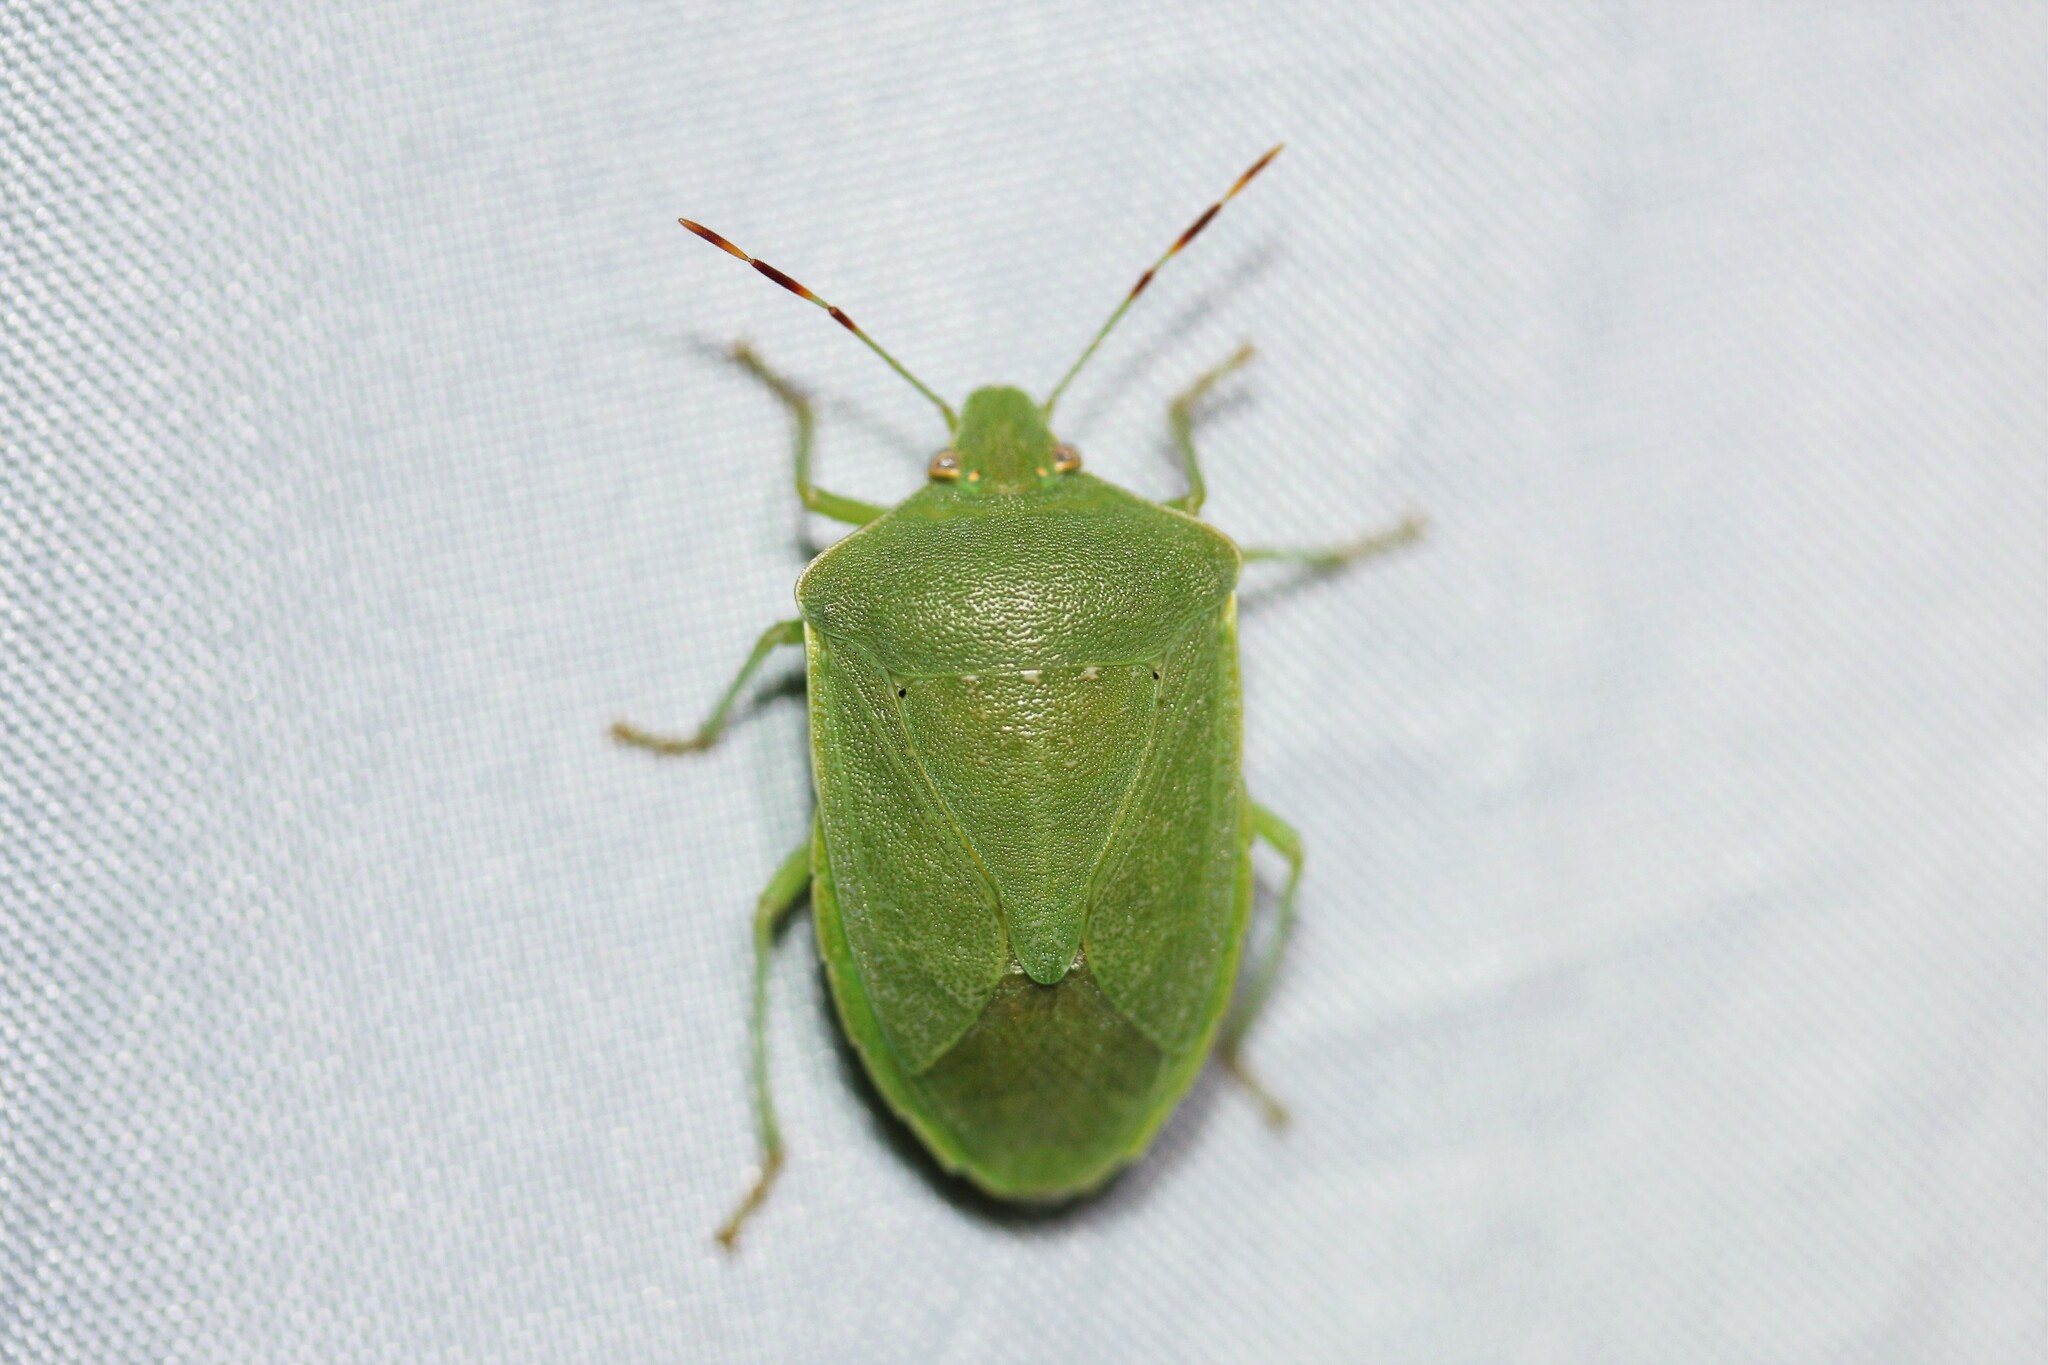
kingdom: Animalia
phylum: Arthropoda
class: Insecta
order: Hemiptera
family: Pentatomidae
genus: Nezara
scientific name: Nezara viridula
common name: Southern green stink bug
